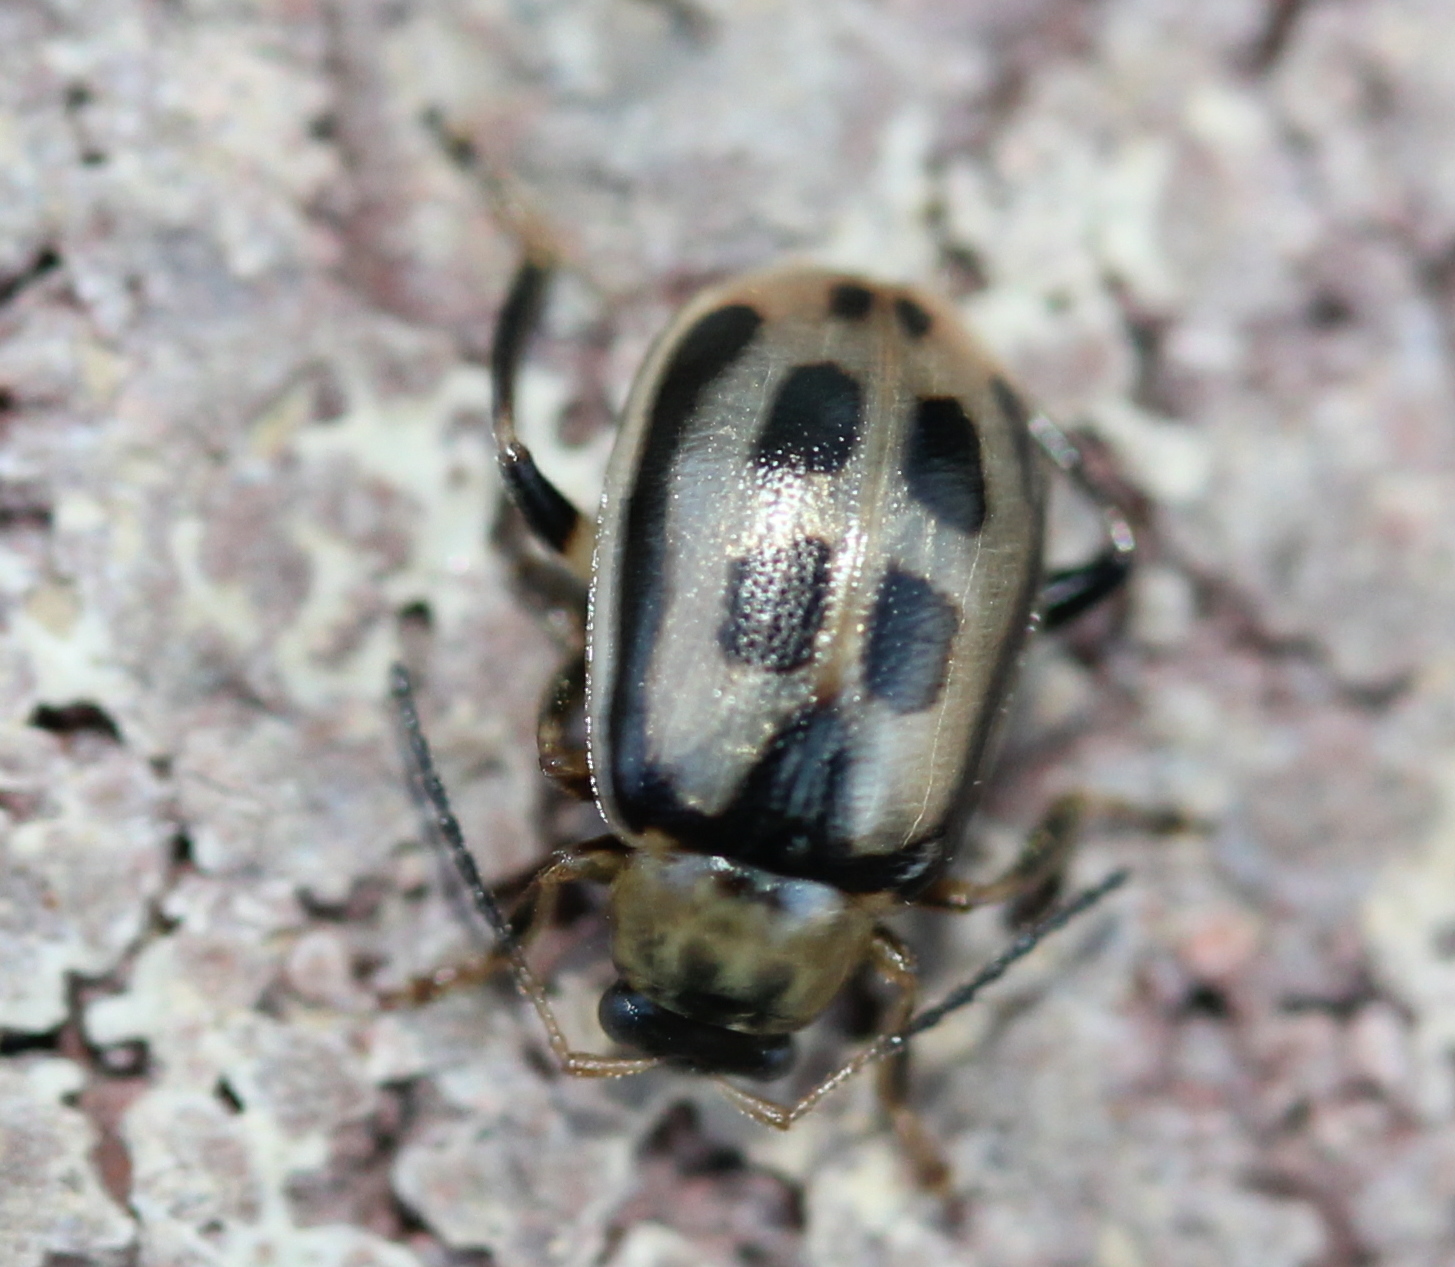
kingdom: Animalia
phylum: Arthropoda
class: Insecta
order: Coleoptera
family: Chrysomelidae
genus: Cerotoma
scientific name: Cerotoma trifurcata
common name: Bean leaf beetle
